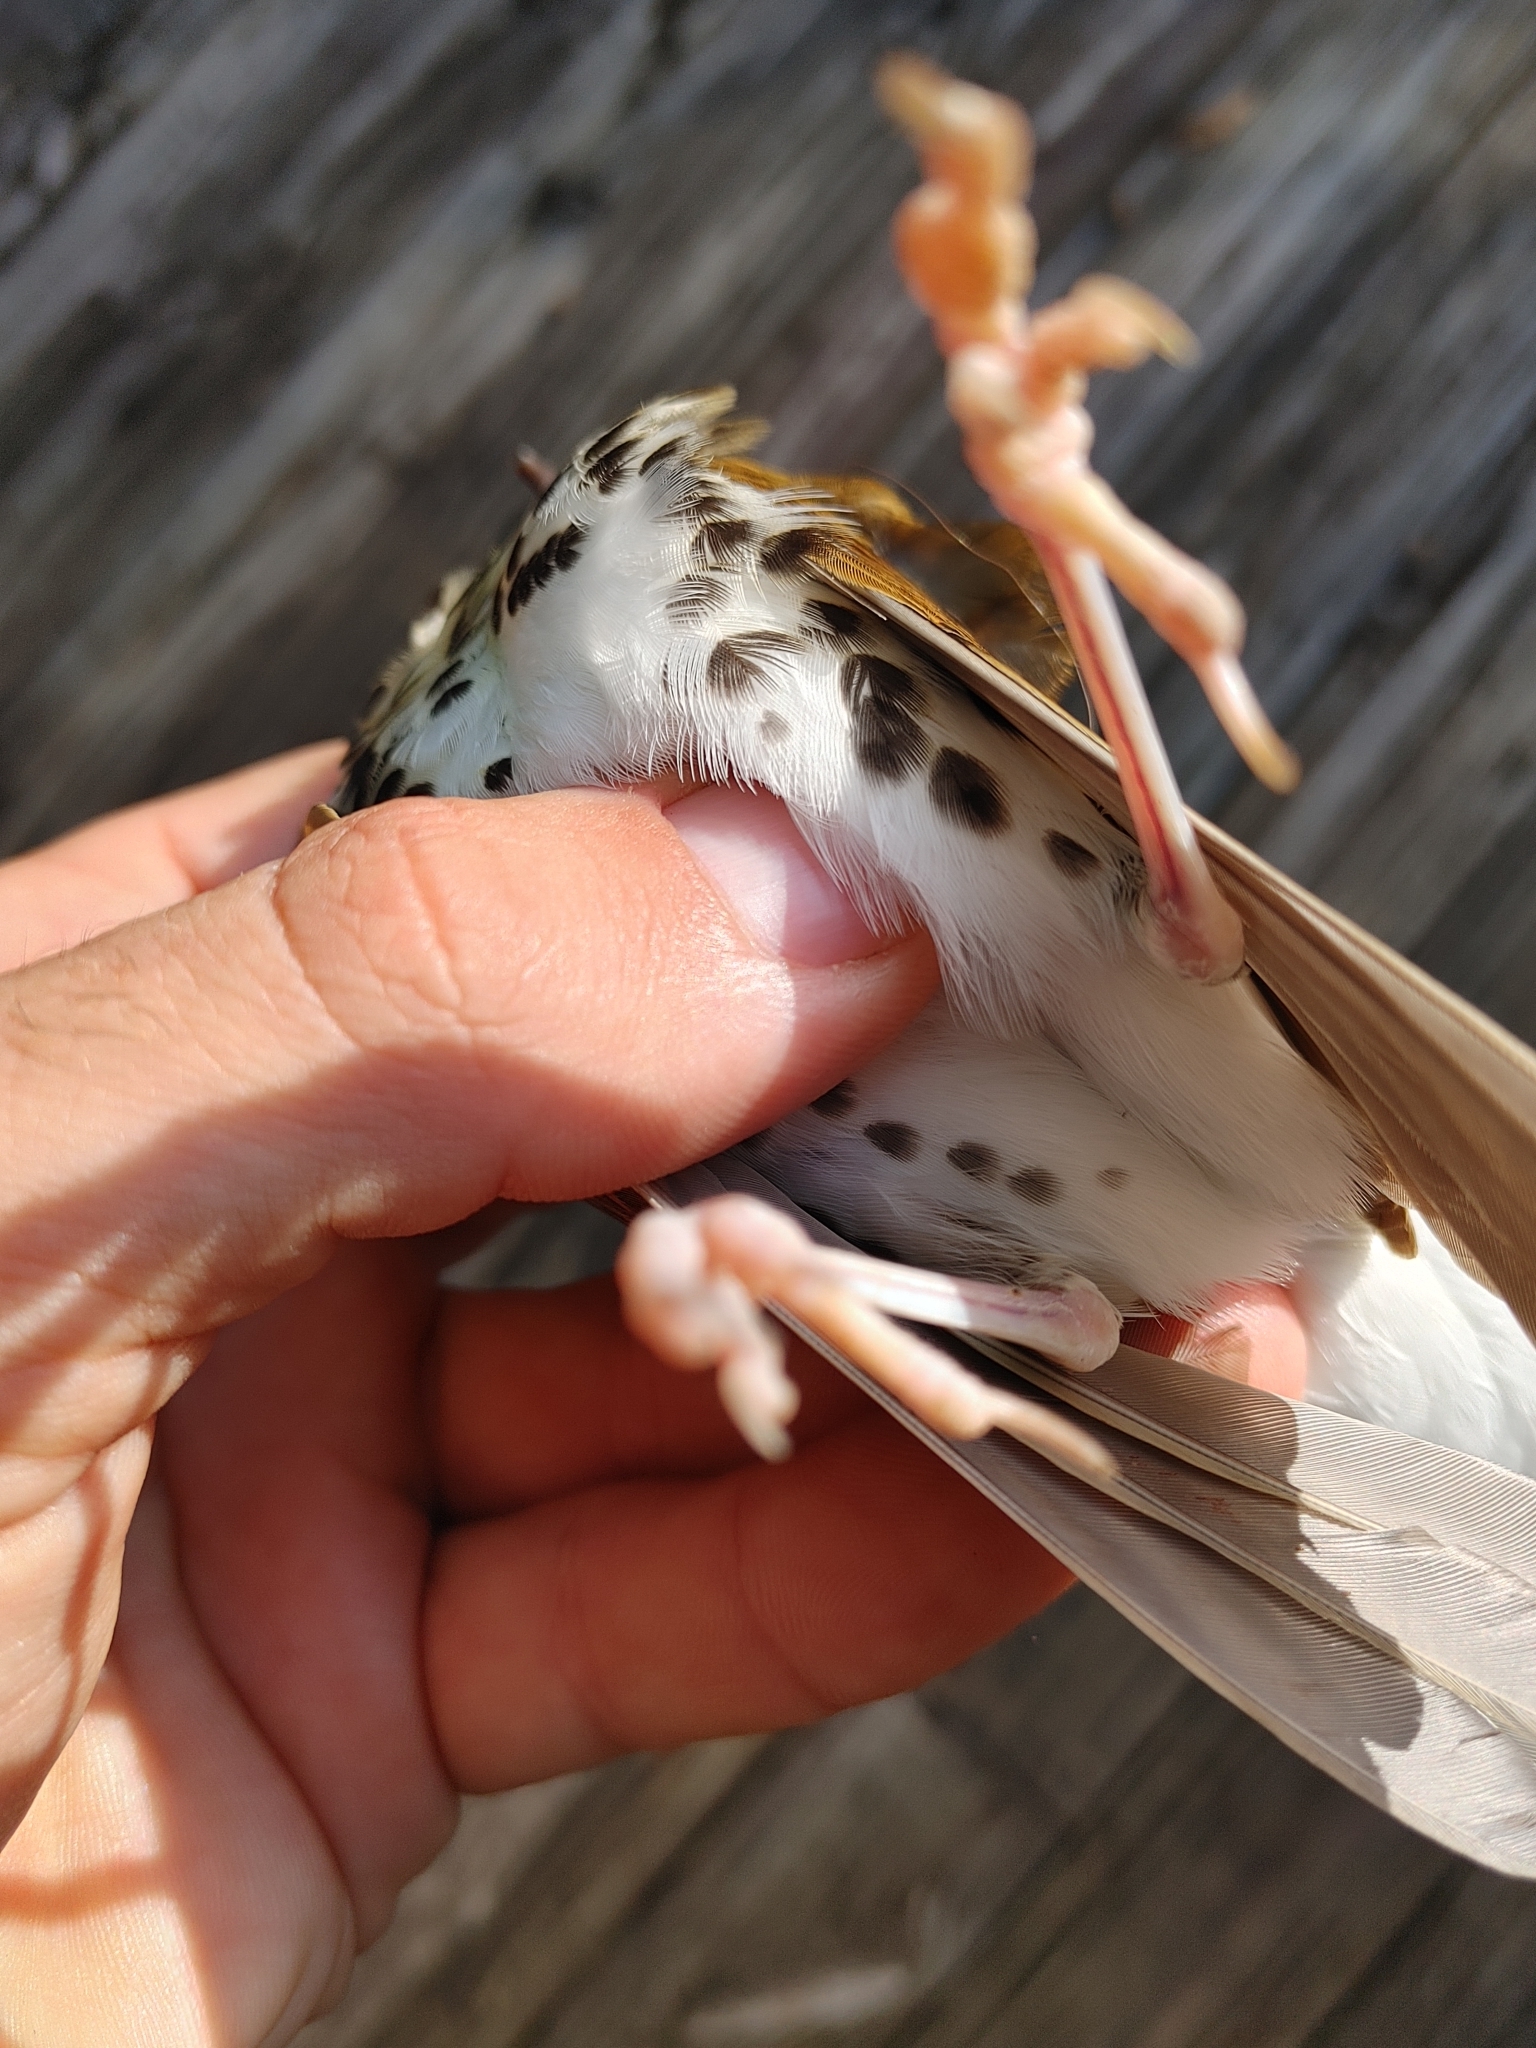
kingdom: Animalia
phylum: Chordata
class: Aves
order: Passeriformes
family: Turdidae
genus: Hylocichla
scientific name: Hylocichla mustelina
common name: Wood thrush
